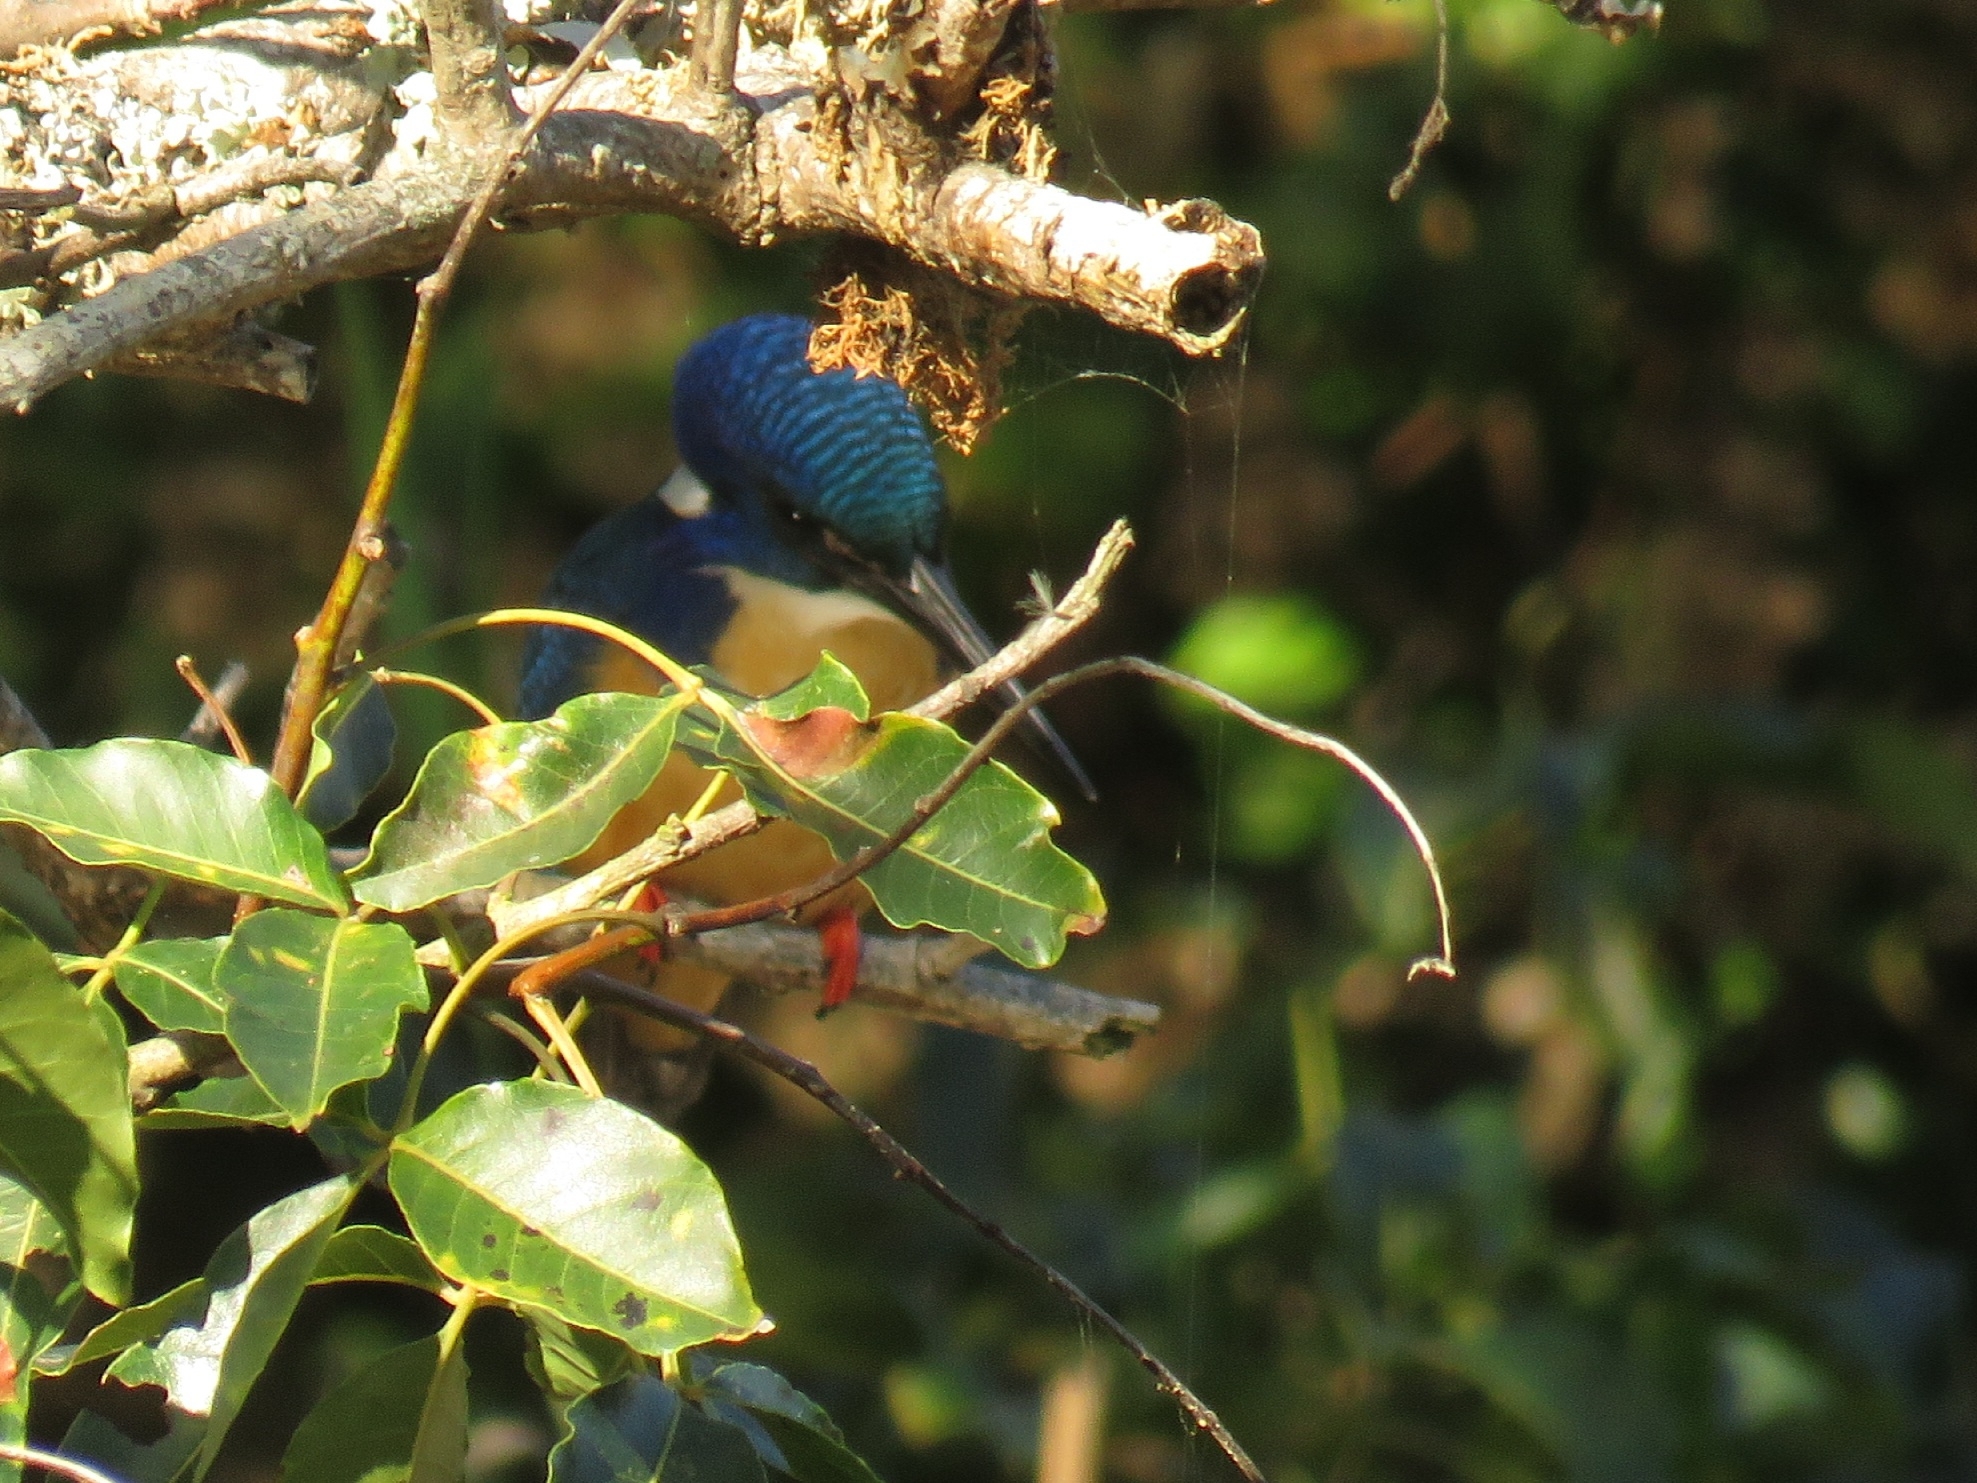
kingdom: Animalia
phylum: Chordata
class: Aves
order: Coraciiformes
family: Alcedinidae
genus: Alcedo
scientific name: Alcedo semitorquata
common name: Half-collared kingfisher
